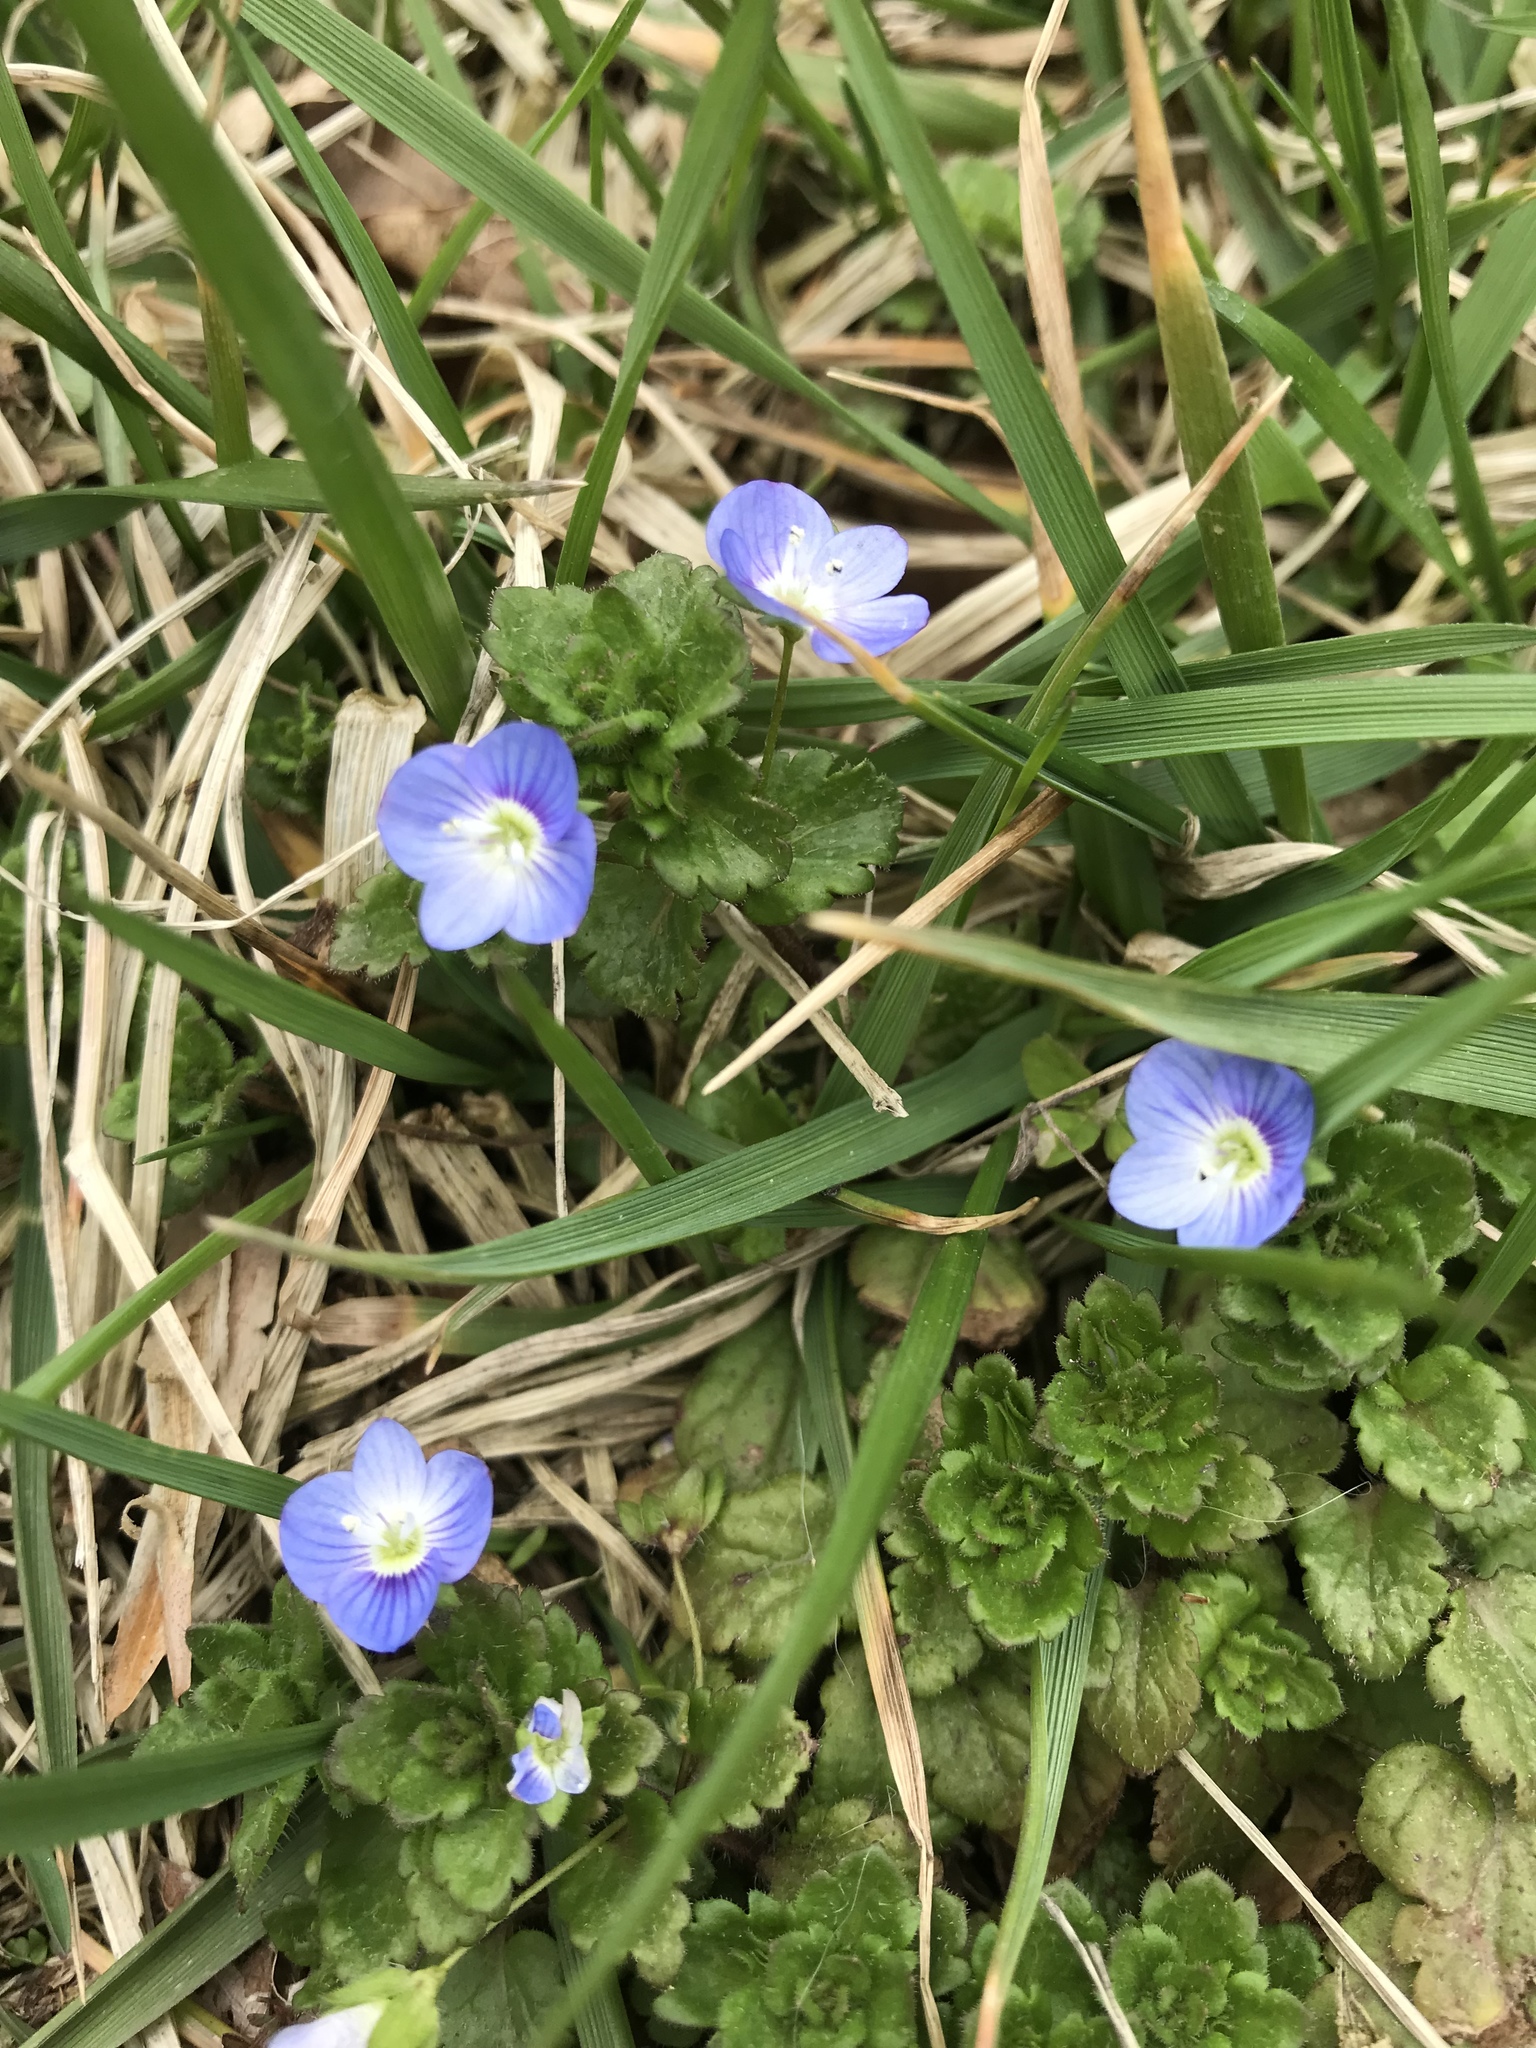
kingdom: Plantae
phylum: Tracheophyta
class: Magnoliopsida
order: Lamiales
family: Plantaginaceae
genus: Veronica
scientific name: Veronica persica
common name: Common field-speedwell
